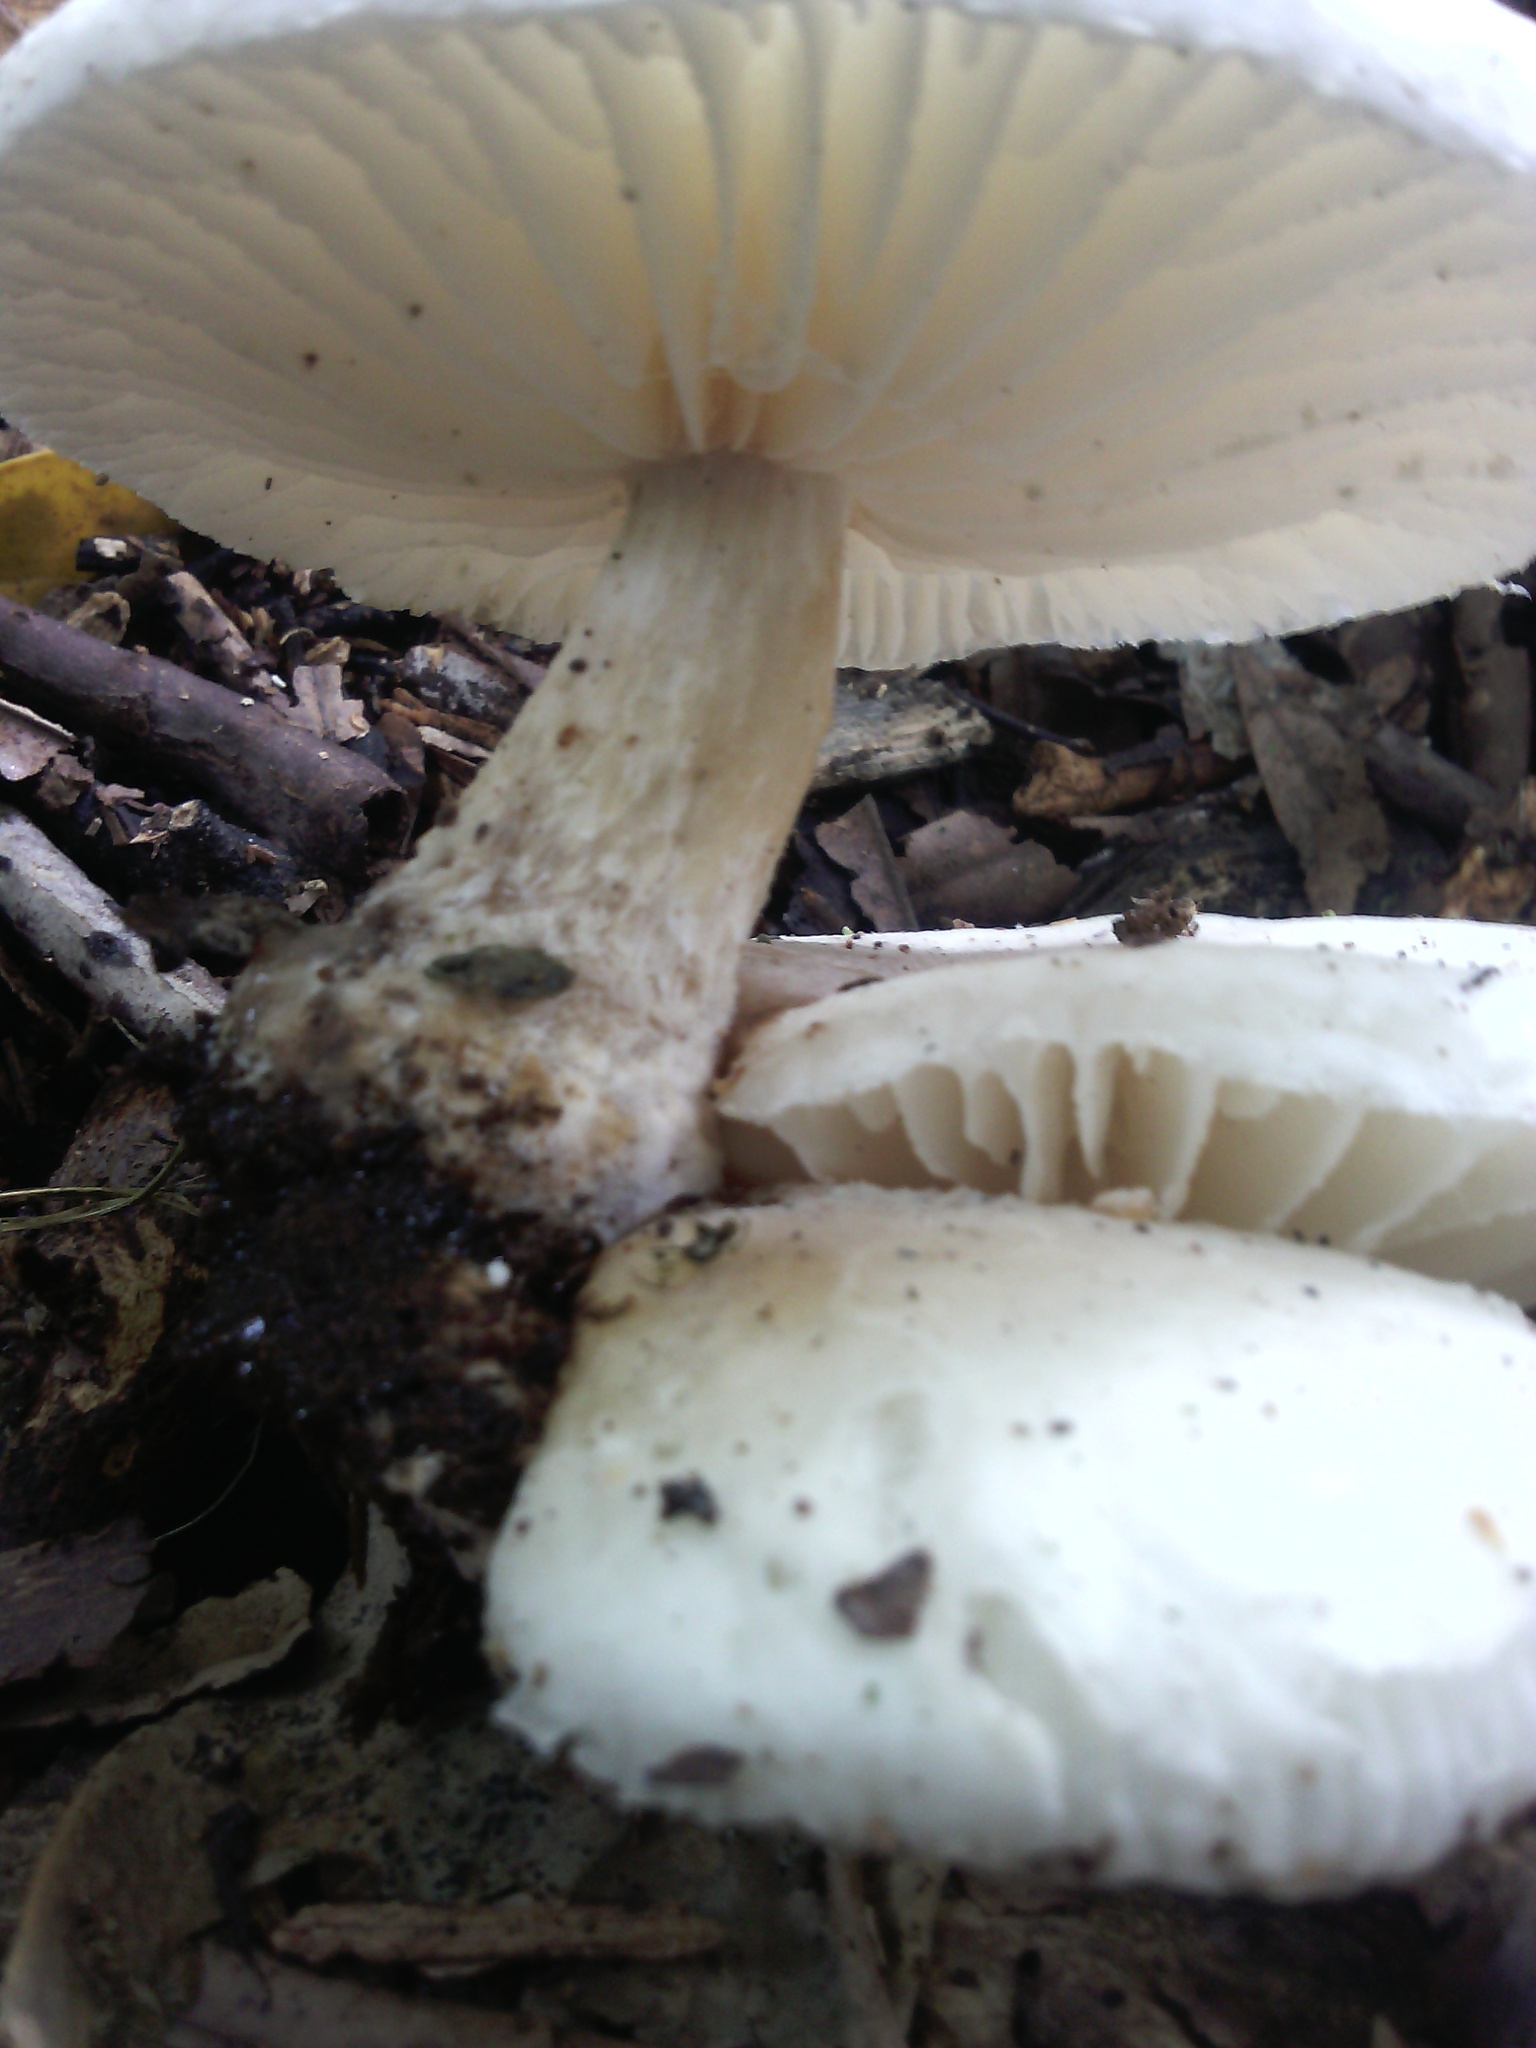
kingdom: Fungi
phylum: Basidiomycota
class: Agaricomycetes
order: Agaricales
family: Physalacriaceae
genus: Oudemansiella
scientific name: Oudemansiella australis
